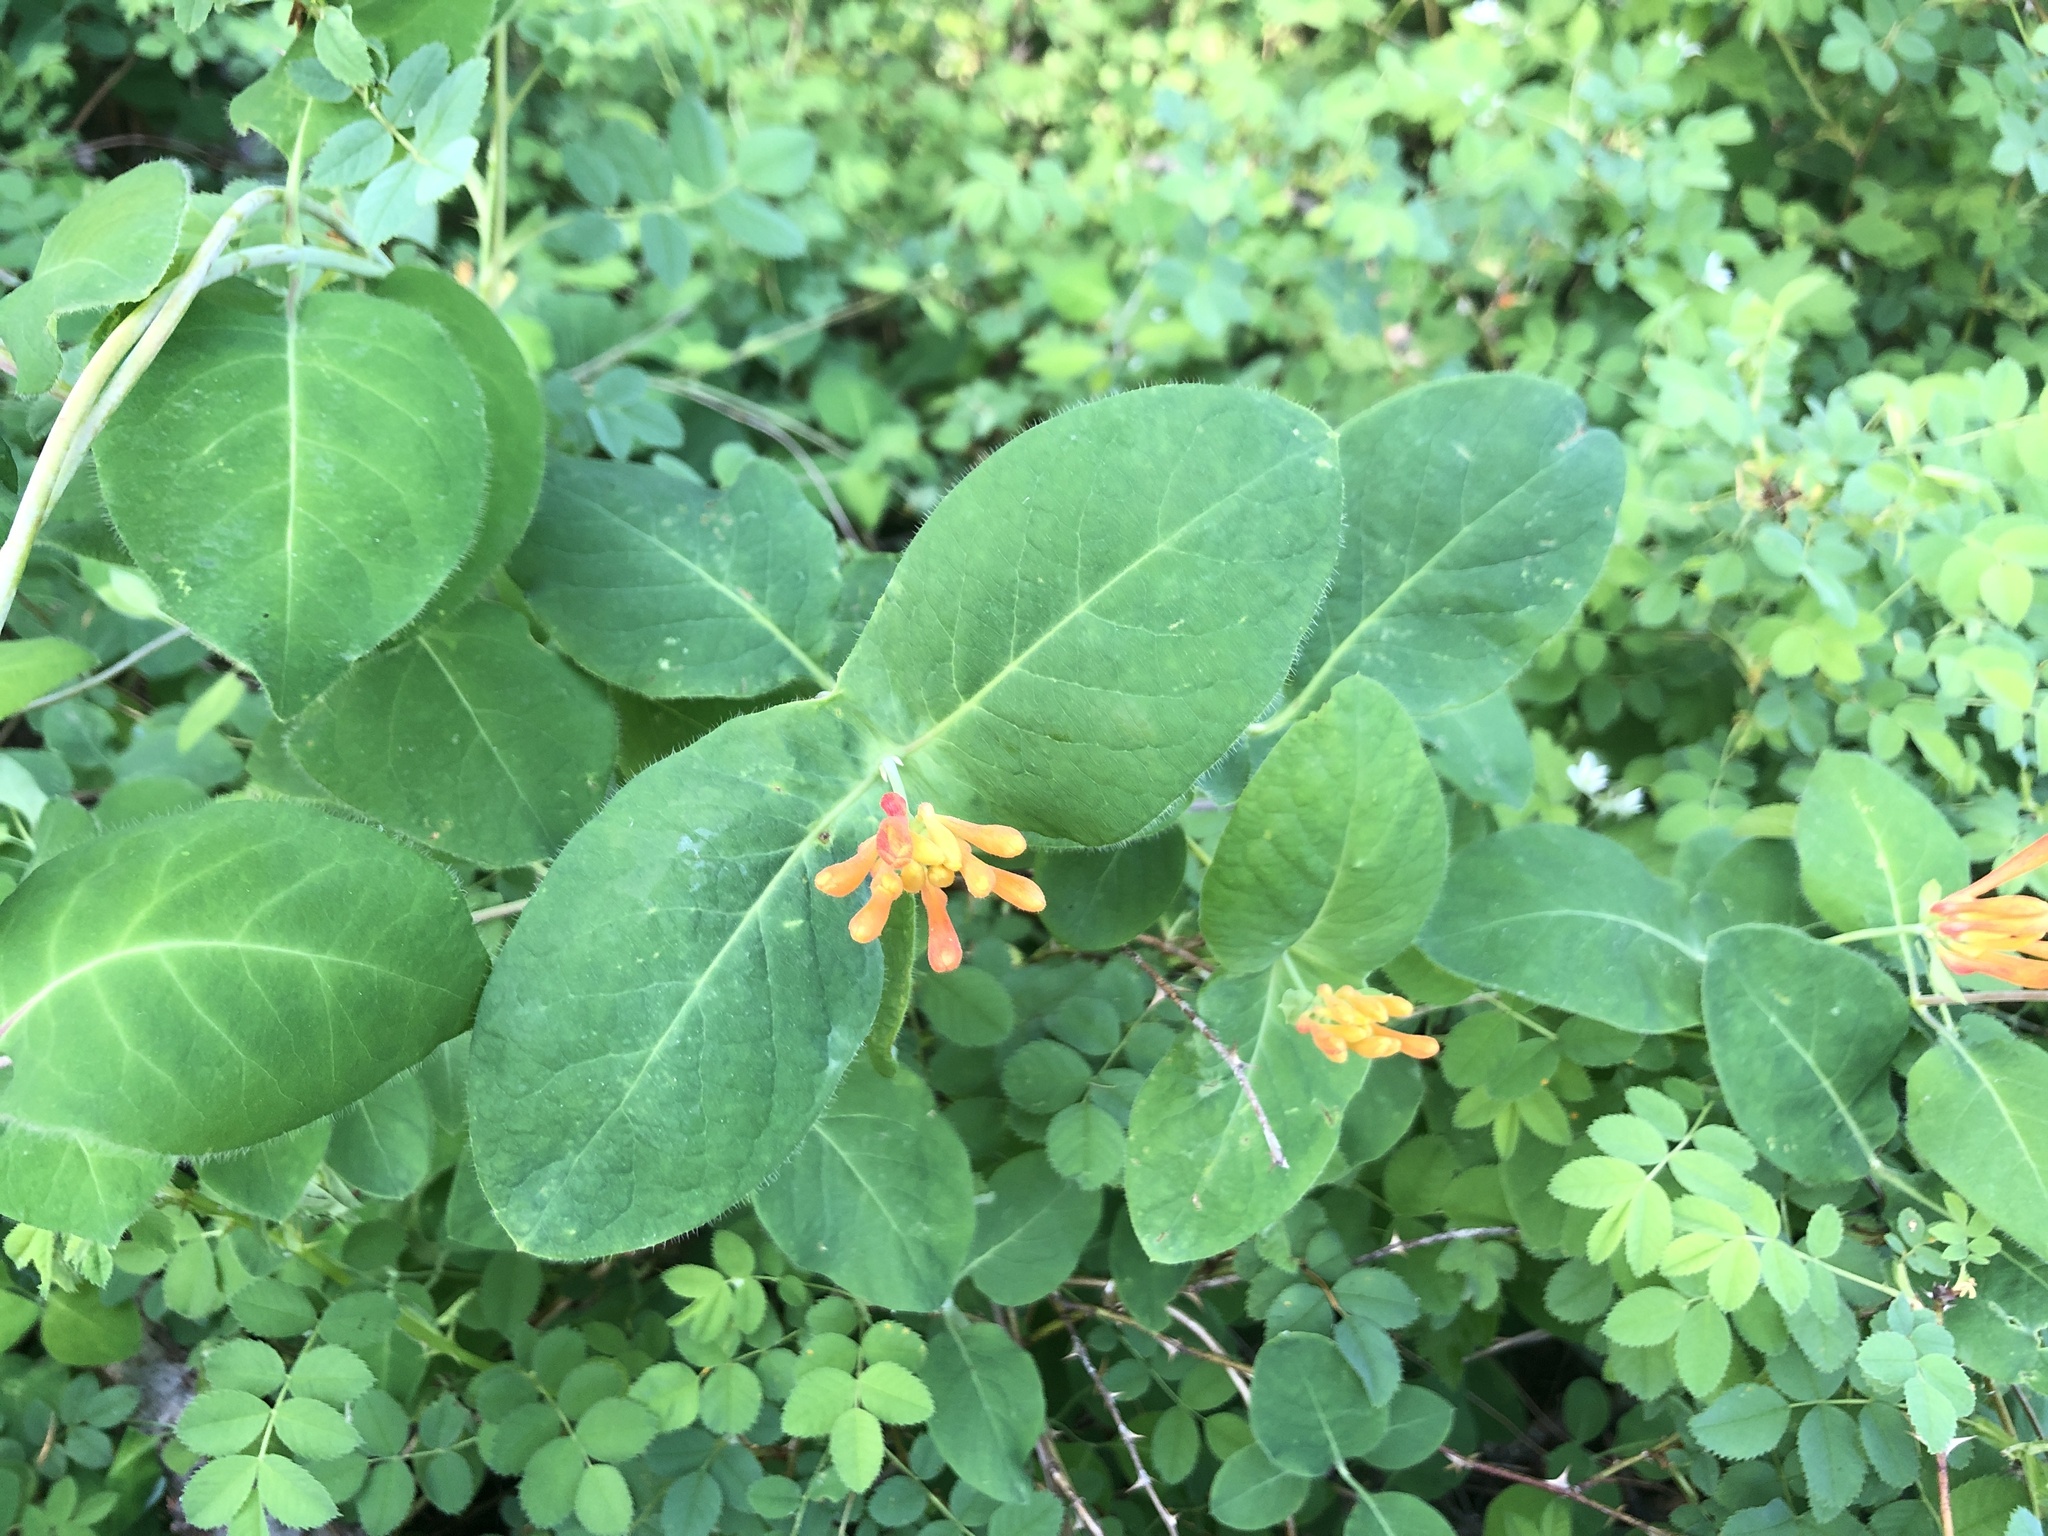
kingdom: Plantae
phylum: Tracheophyta
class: Magnoliopsida
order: Dipsacales
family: Caprifoliaceae
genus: Lonicera
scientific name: Lonicera ciliosa
